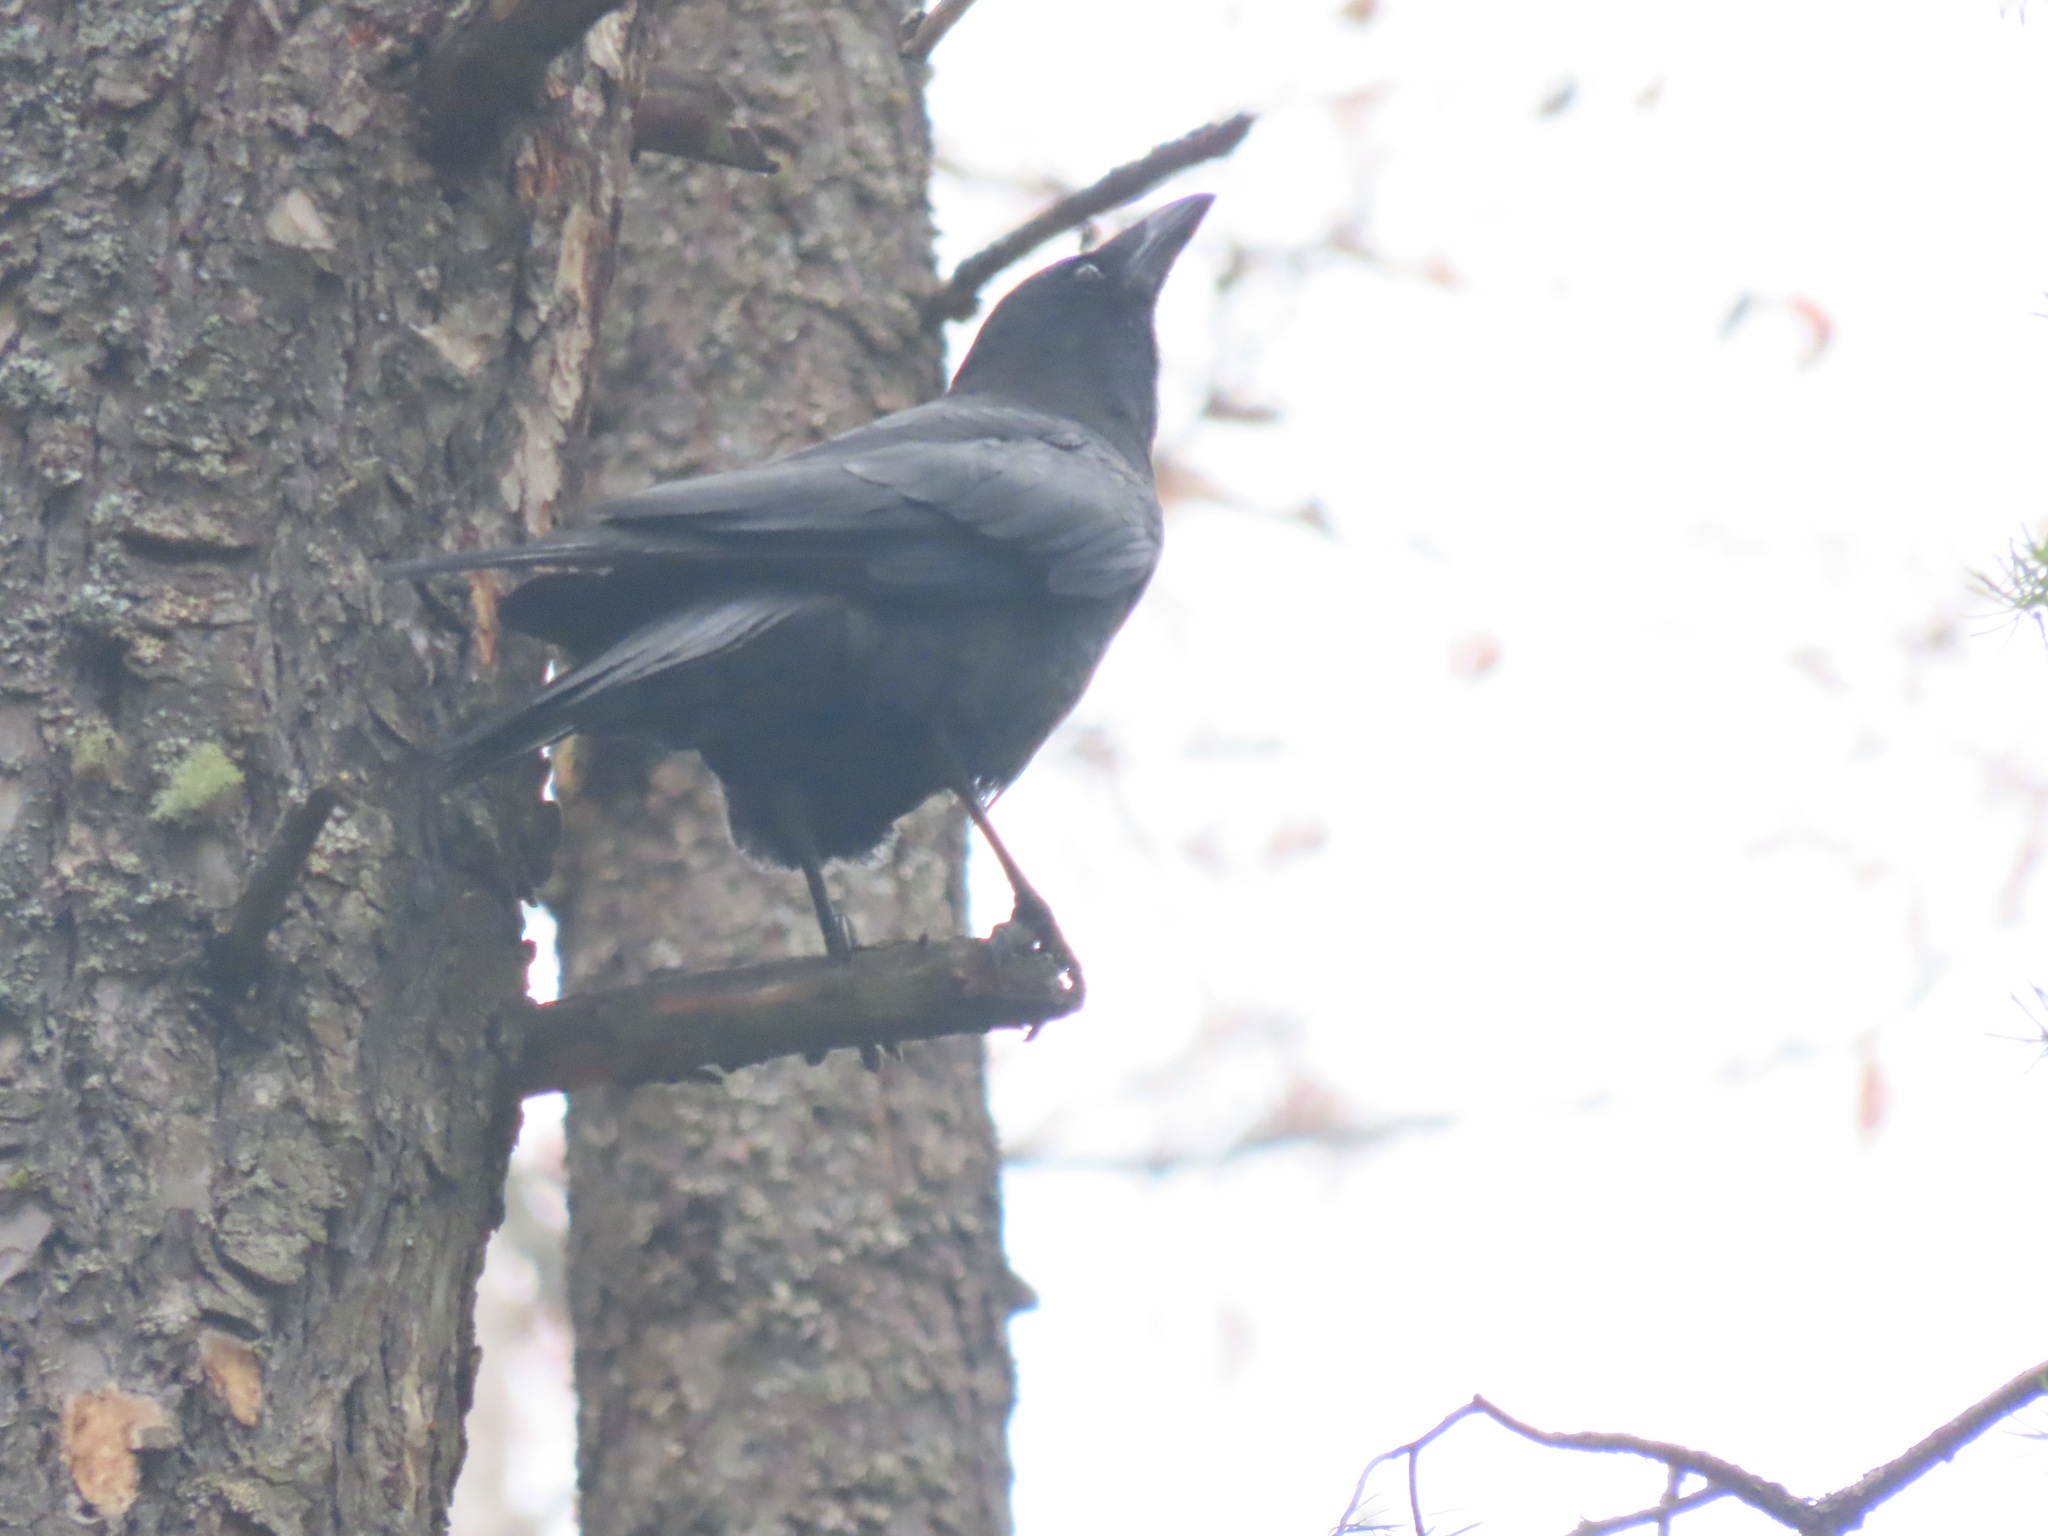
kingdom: Animalia
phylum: Chordata
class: Aves
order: Passeriformes
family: Corvidae
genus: Corvus
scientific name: Corvus brachyrhynchos
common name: American crow
